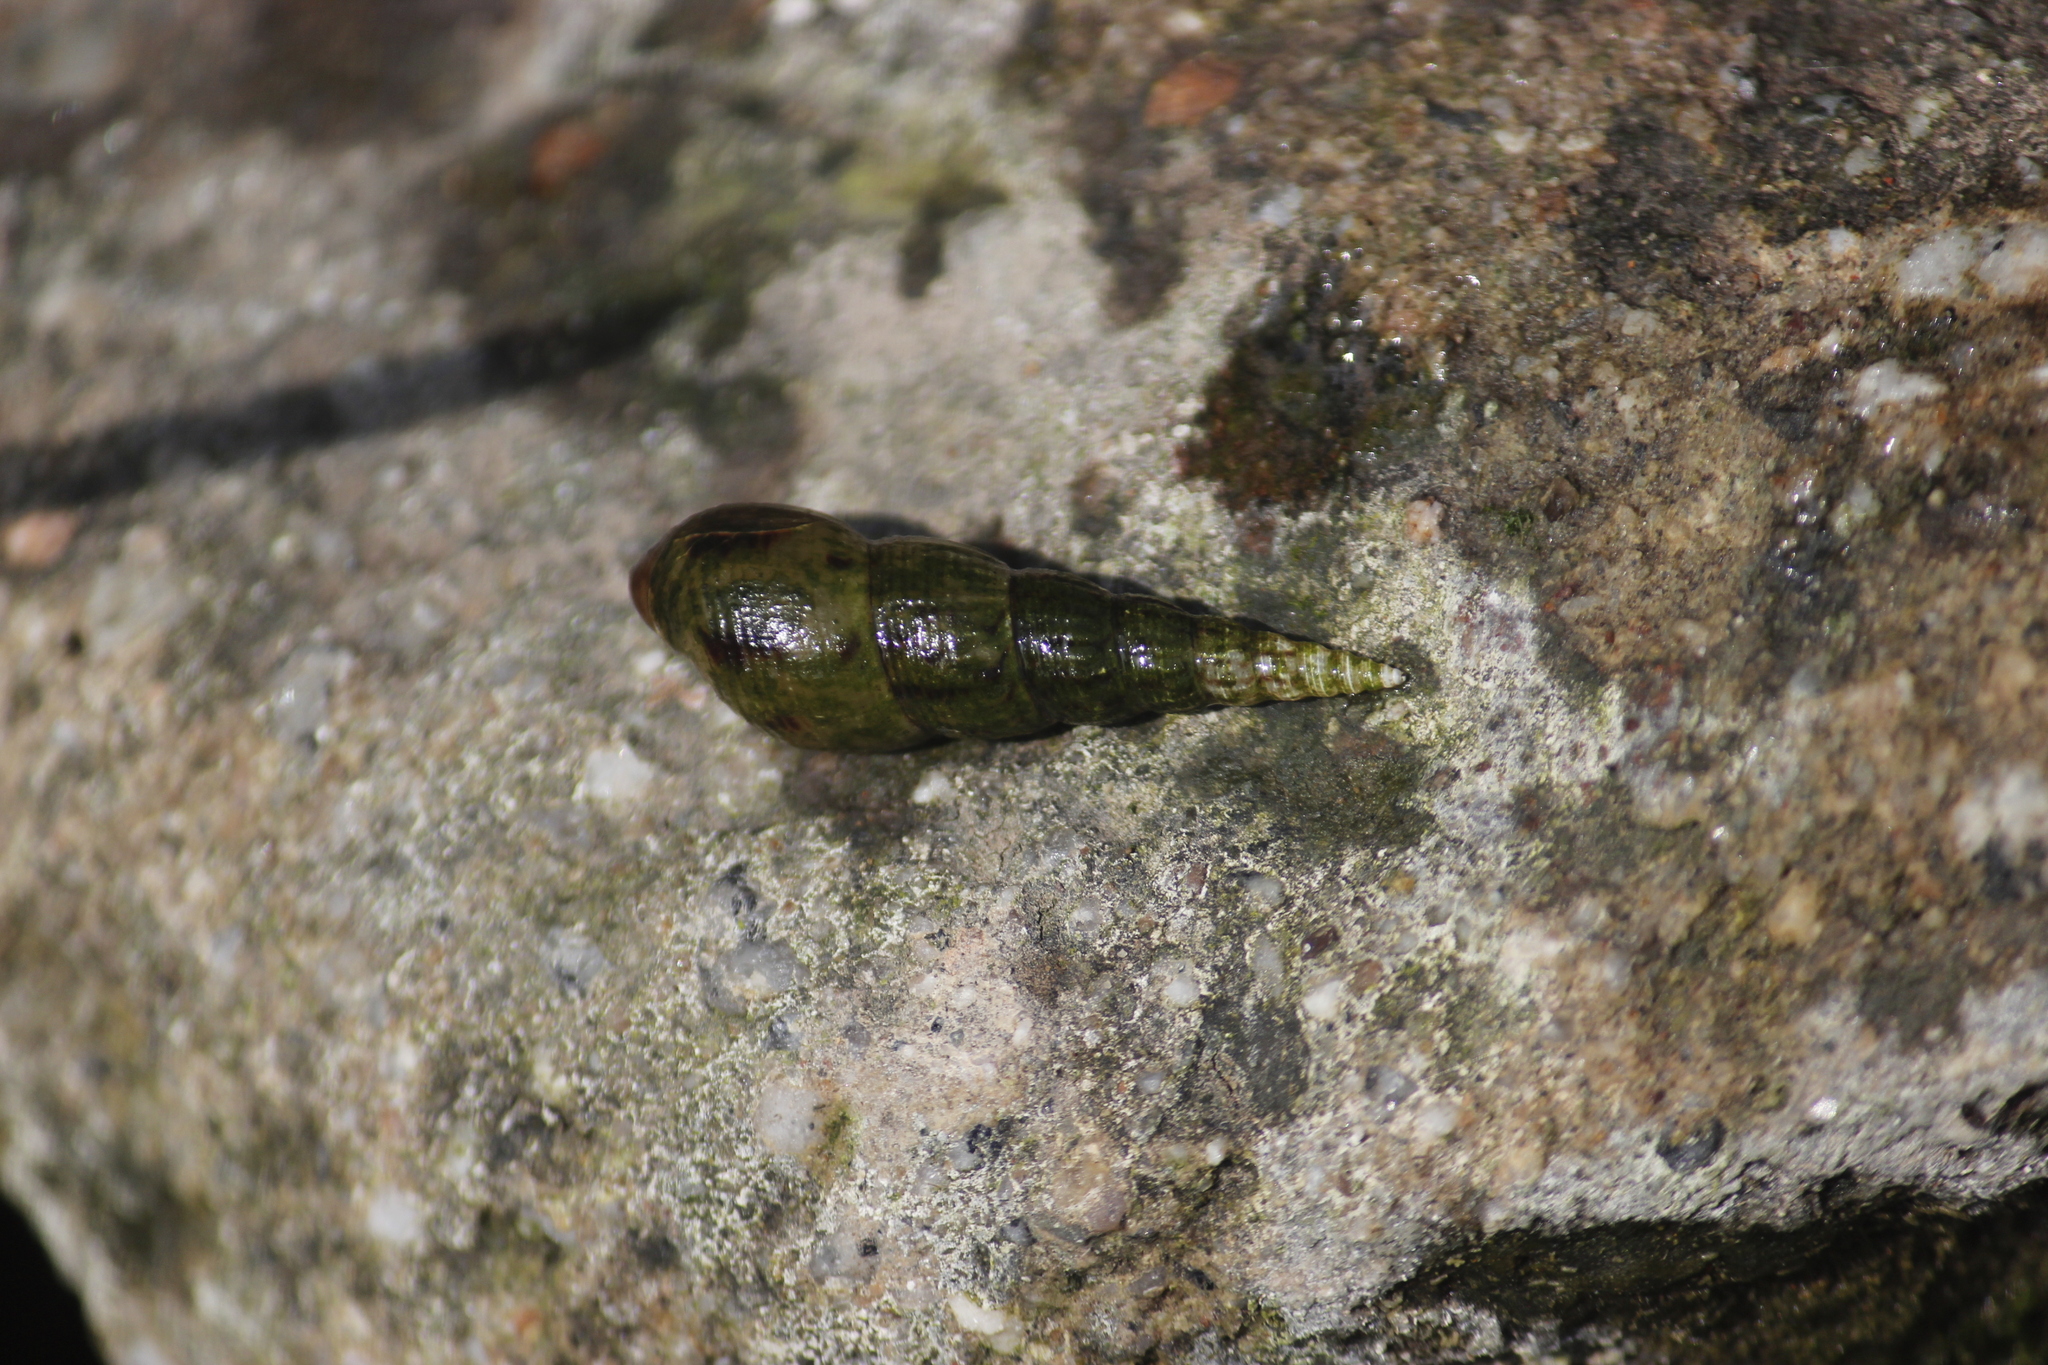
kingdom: Animalia
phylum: Mollusca
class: Gastropoda
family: Thiaridae
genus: Melanoides
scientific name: Melanoides tuberculata
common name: Red-rim melania
